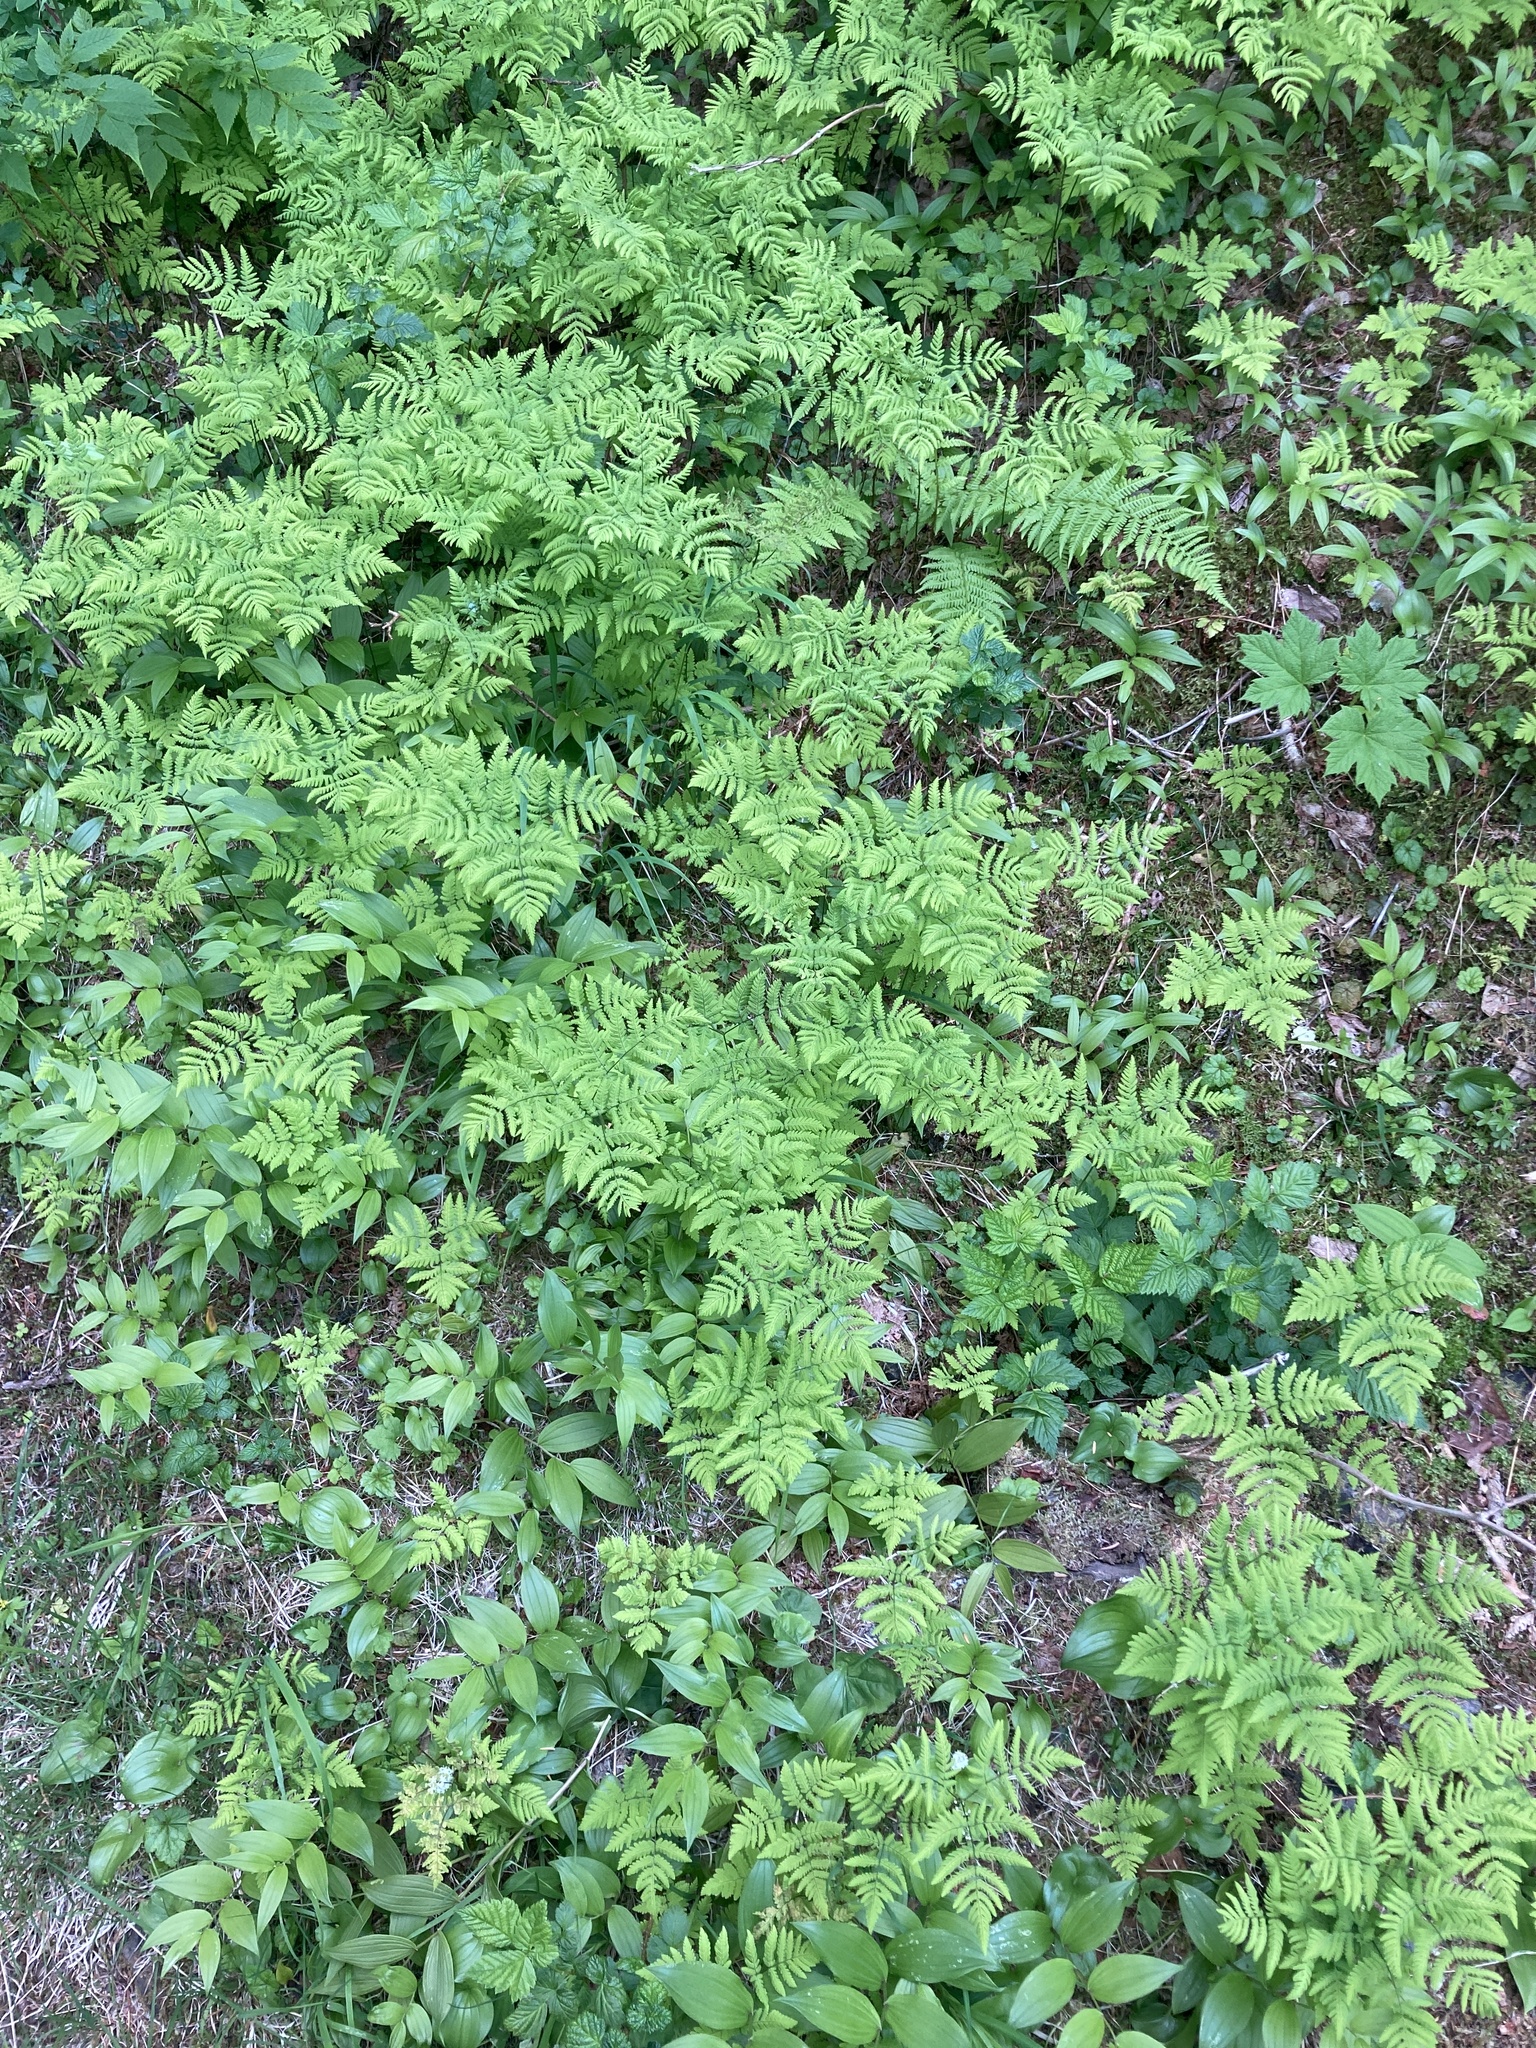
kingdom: Plantae
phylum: Tracheophyta
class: Polypodiopsida
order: Polypodiales
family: Cystopteridaceae
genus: Gymnocarpium
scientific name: Gymnocarpium disjunctum
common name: Western oak fern
